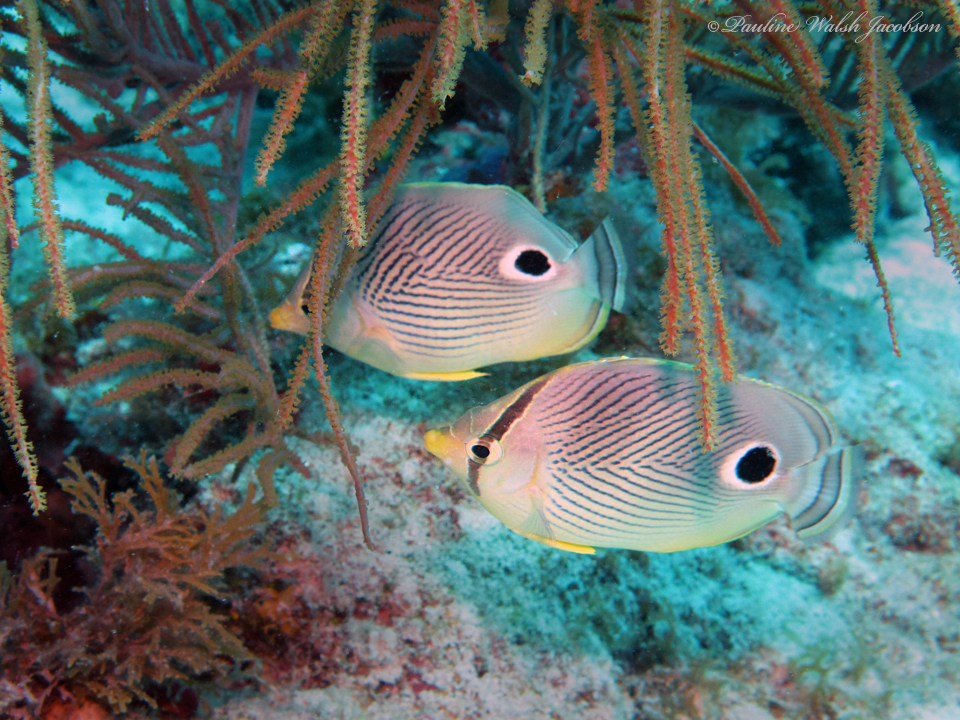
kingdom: Animalia
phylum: Chordata
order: Perciformes
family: Chaetodontidae
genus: Chaetodon
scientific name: Chaetodon capistratus
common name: Kete
